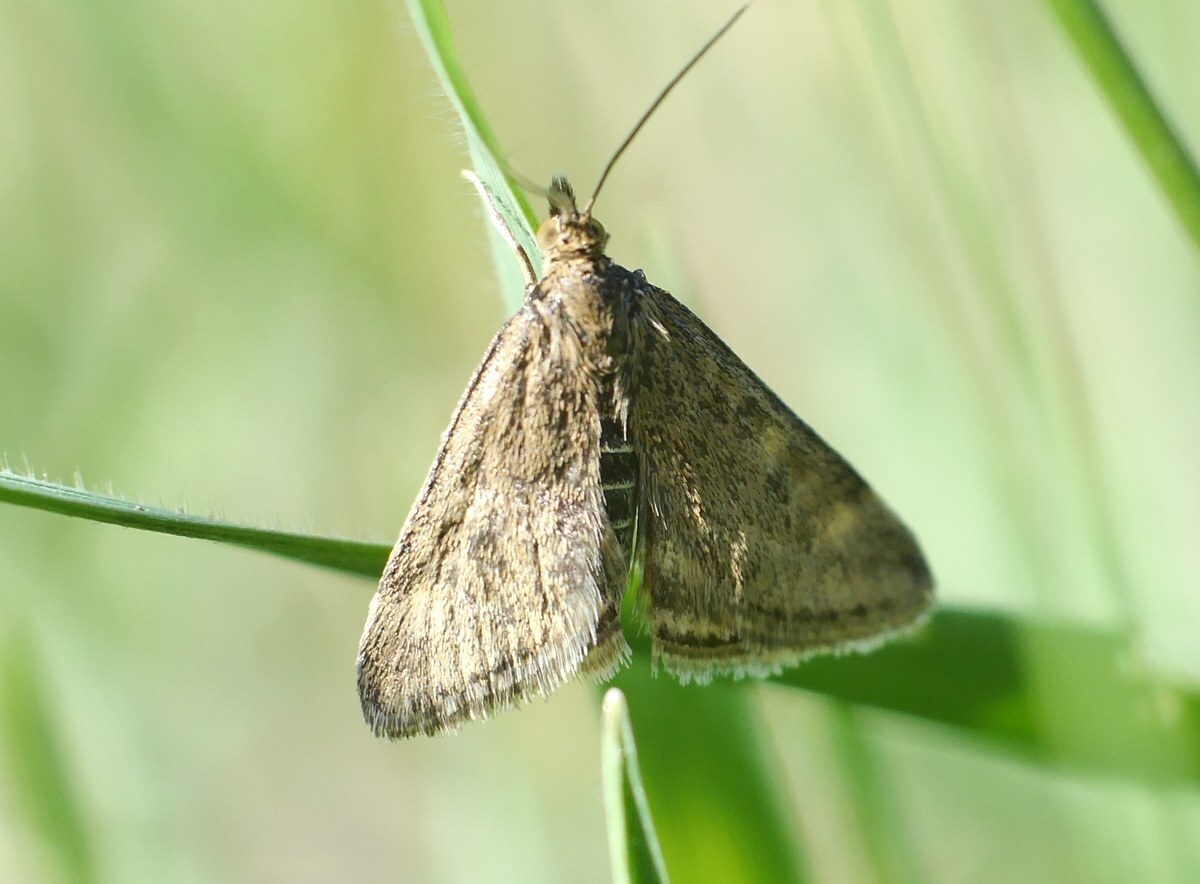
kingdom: Animalia
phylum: Arthropoda
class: Insecta
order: Lepidoptera
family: Crambidae
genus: Pyrausta
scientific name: Pyrausta despicata
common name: Straw-barred pearl
